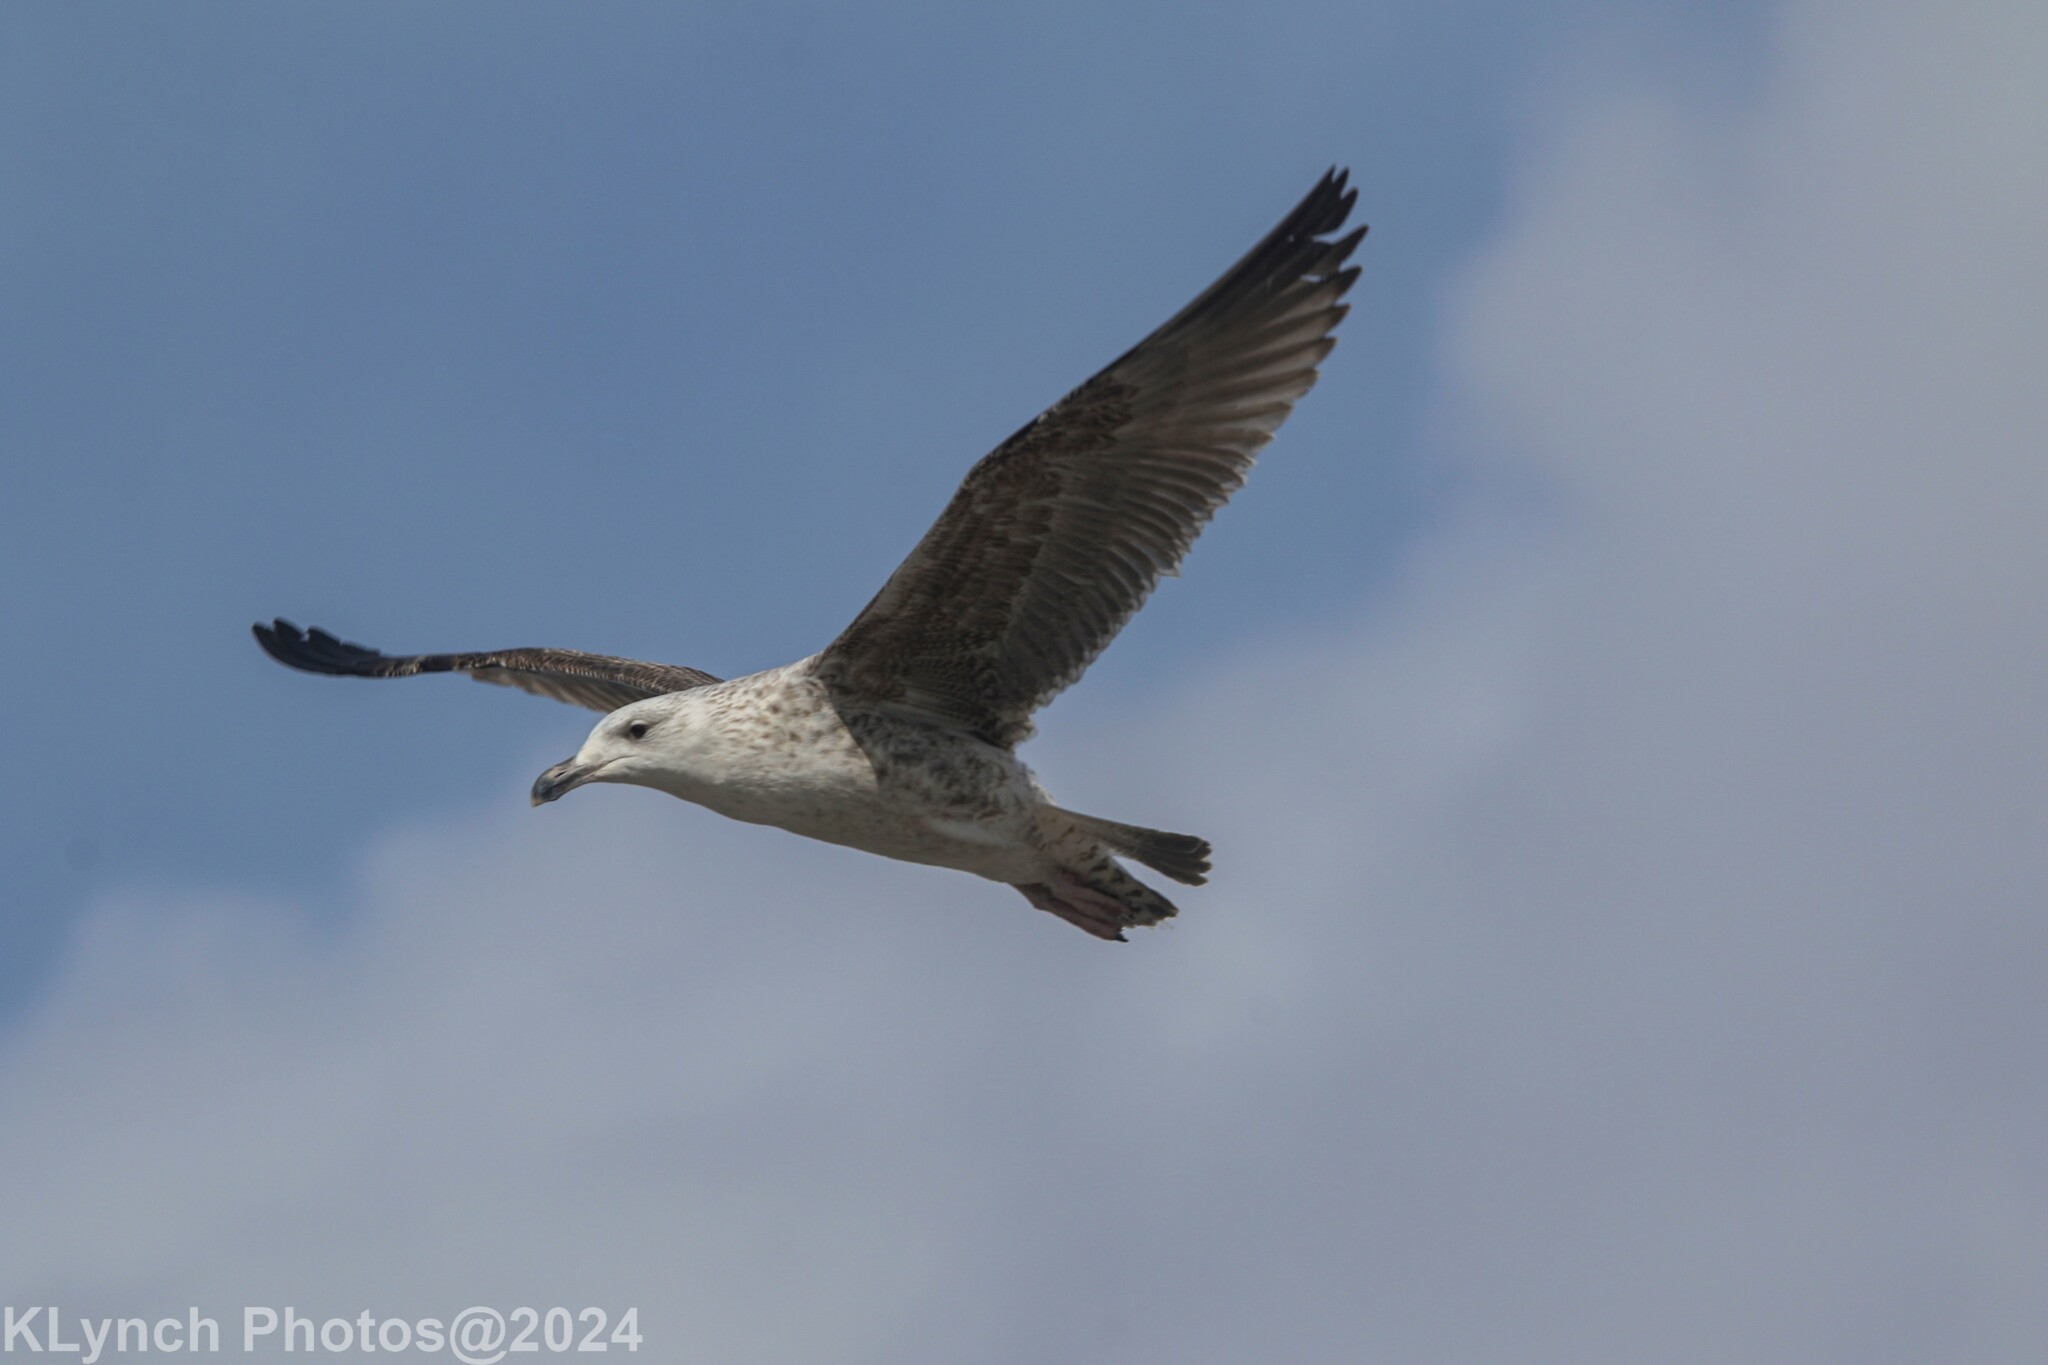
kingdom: Animalia
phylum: Chordata
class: Aves
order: Charadriiformes
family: Laridae
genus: Larus
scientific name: Larus marinus
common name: Great black-backed gull
